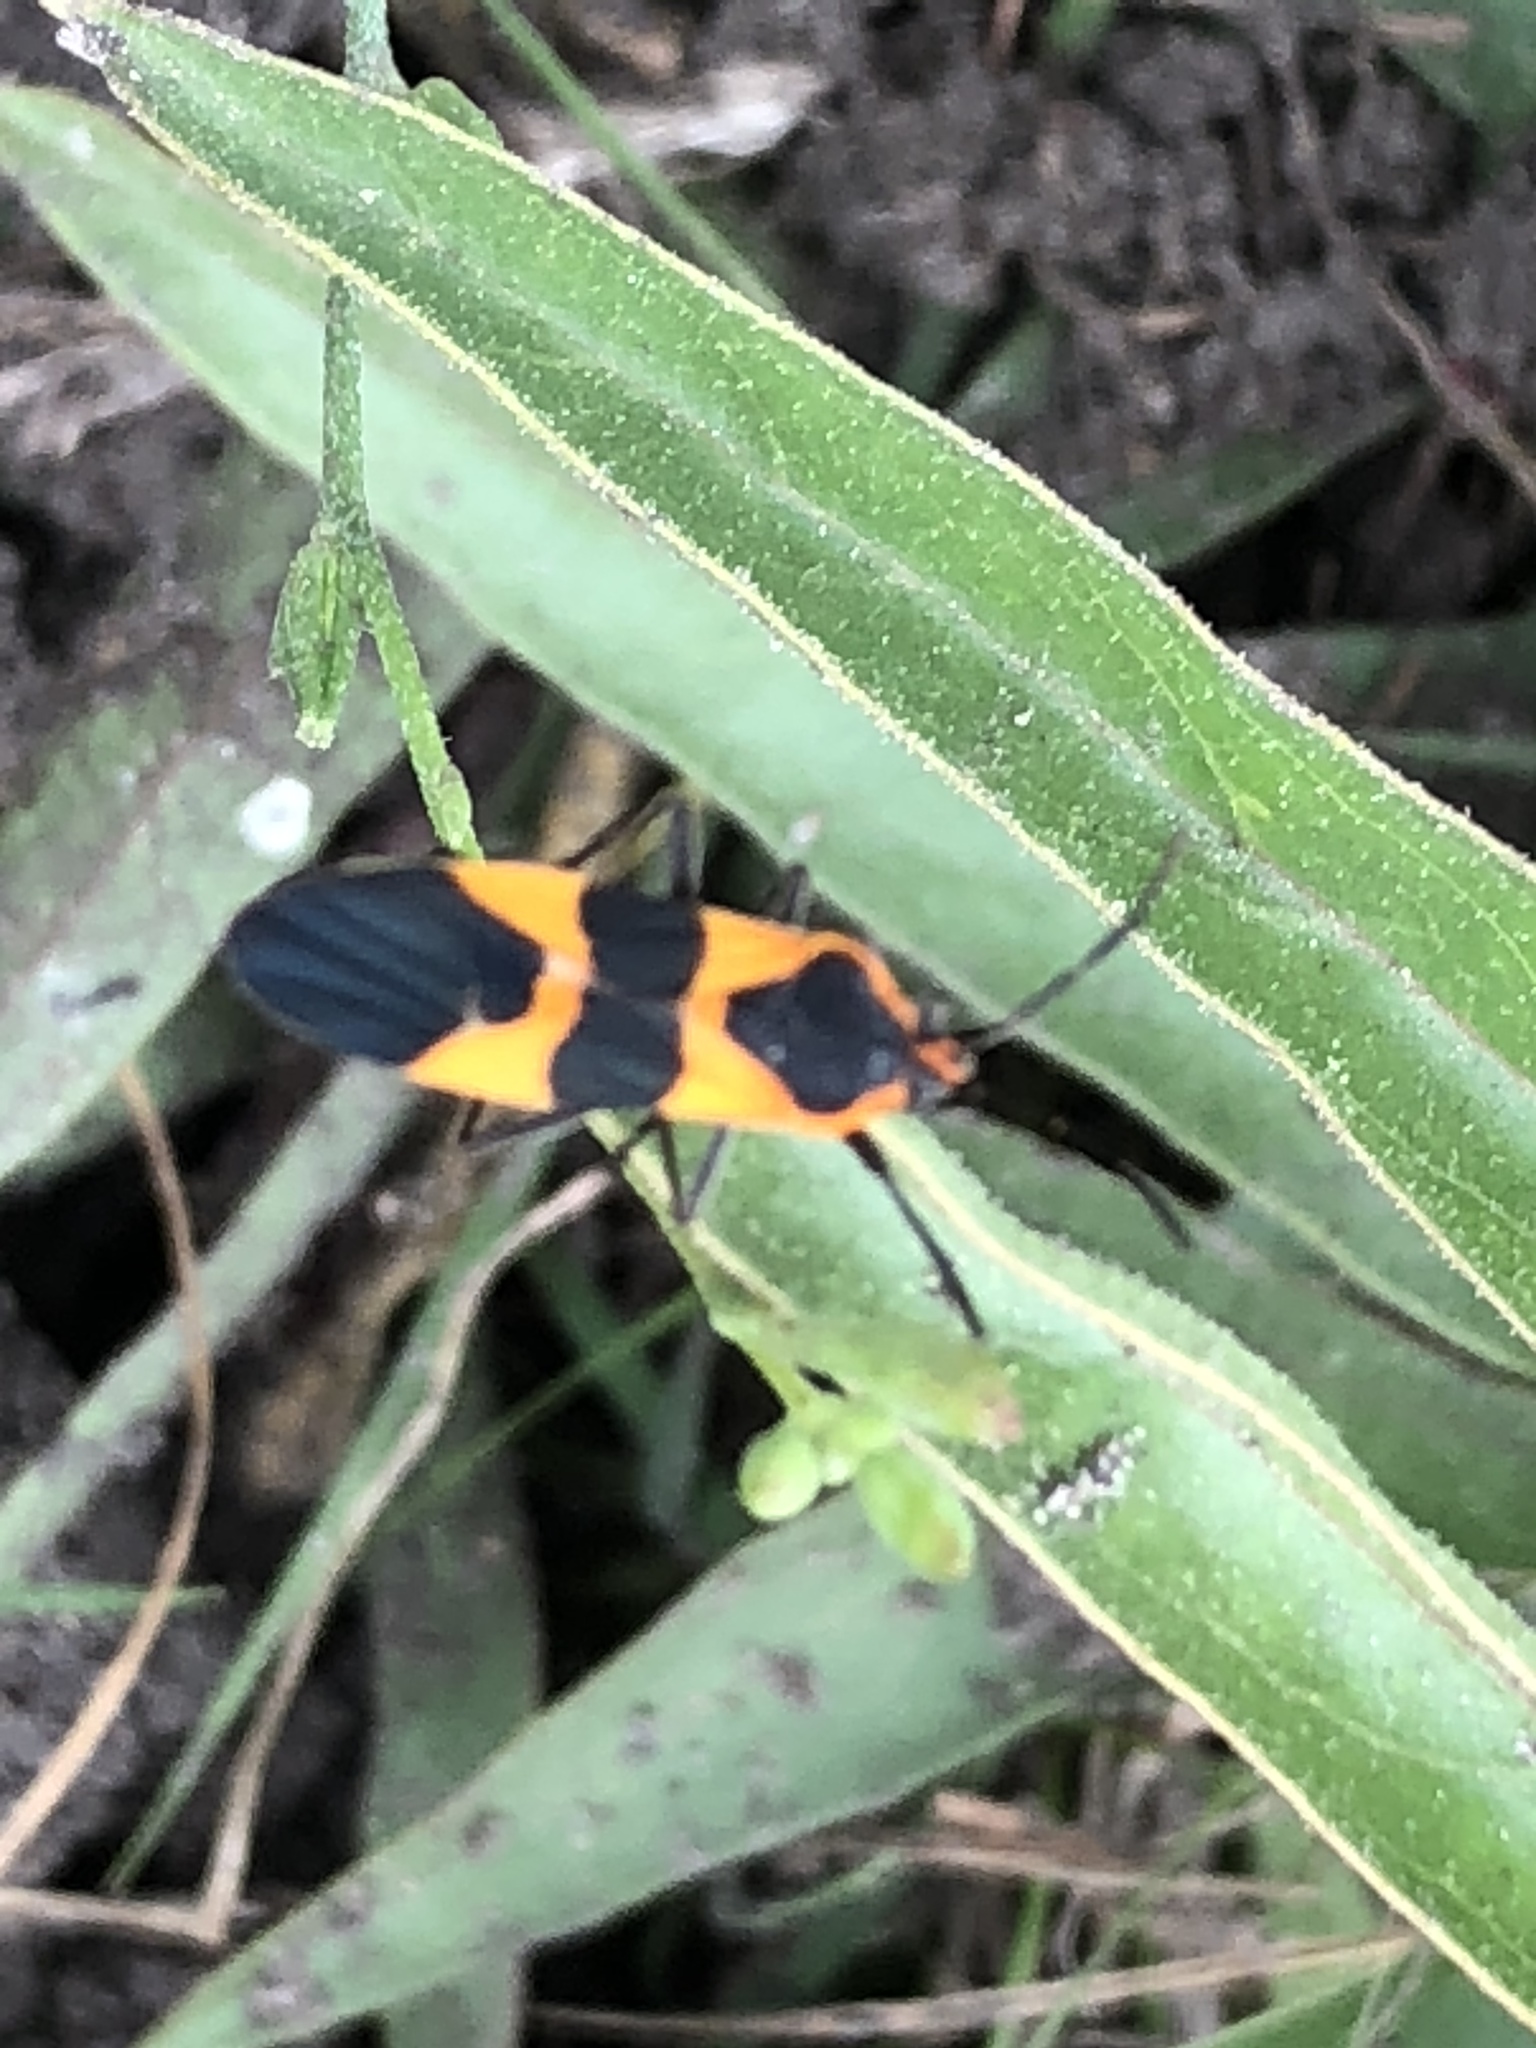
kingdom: Animalia
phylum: Arthropoda
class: Insecta
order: Hemiptera
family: Lygaeidae
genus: Oncopeltus
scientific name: Oncopeltus fasciatus
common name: Large milkweed bug
